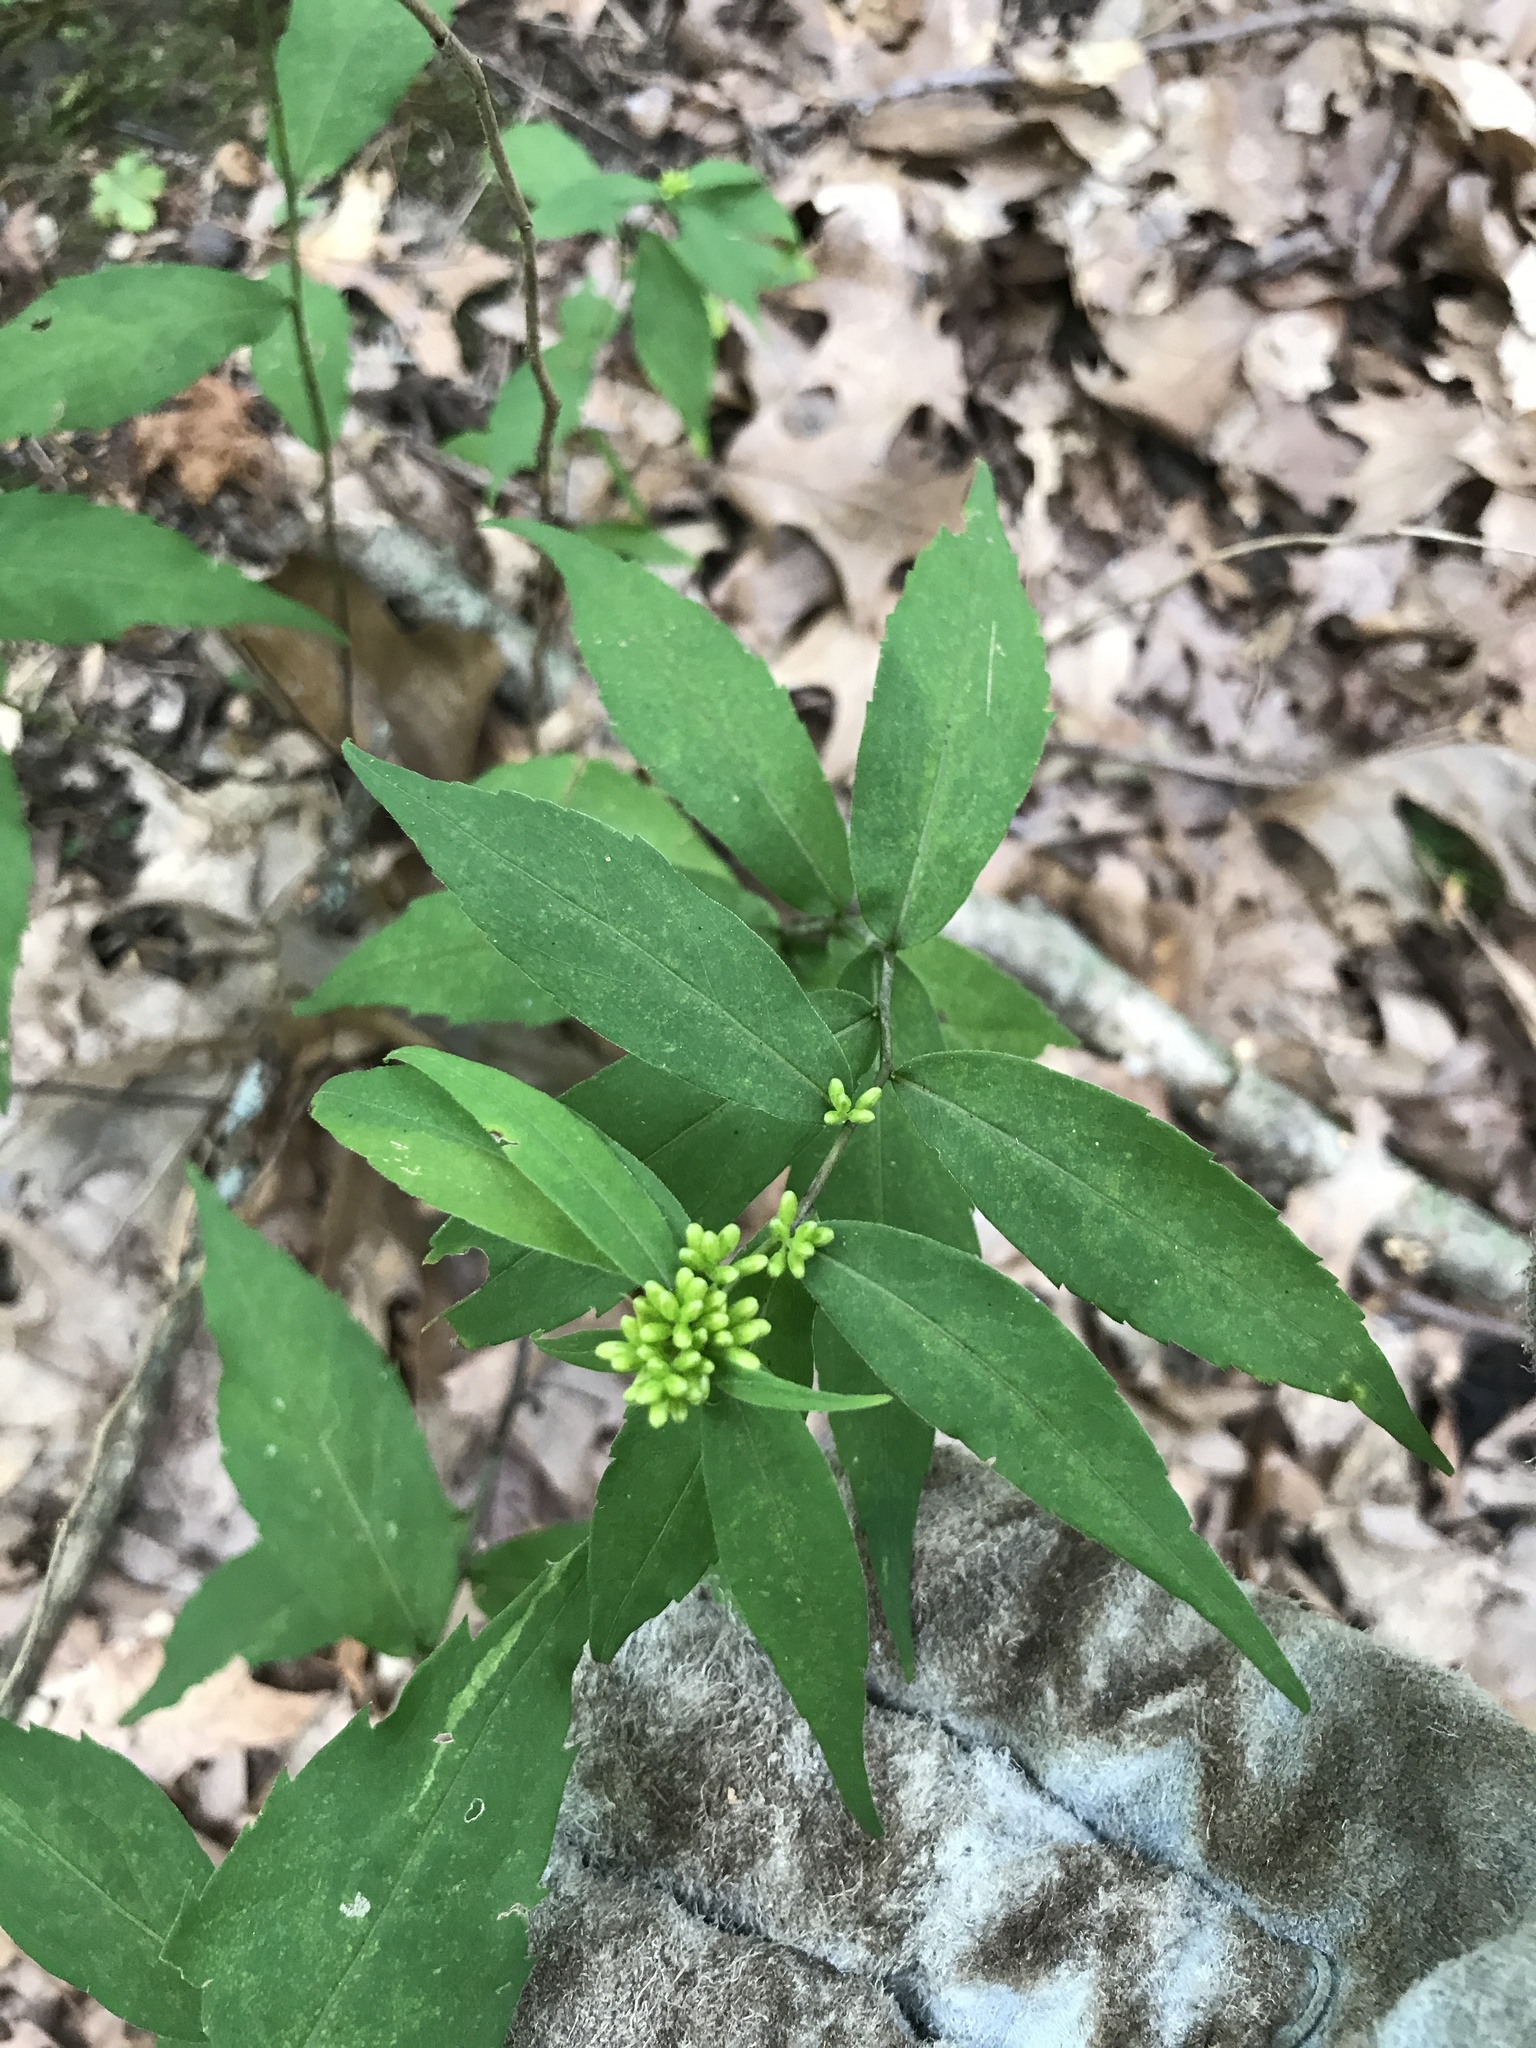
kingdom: Plantae
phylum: Tracheophyta
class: Magnoliopsida
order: Asterales
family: Asteraceae
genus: Solidago
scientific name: Solidago caesia
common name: Woodland goldenrod
